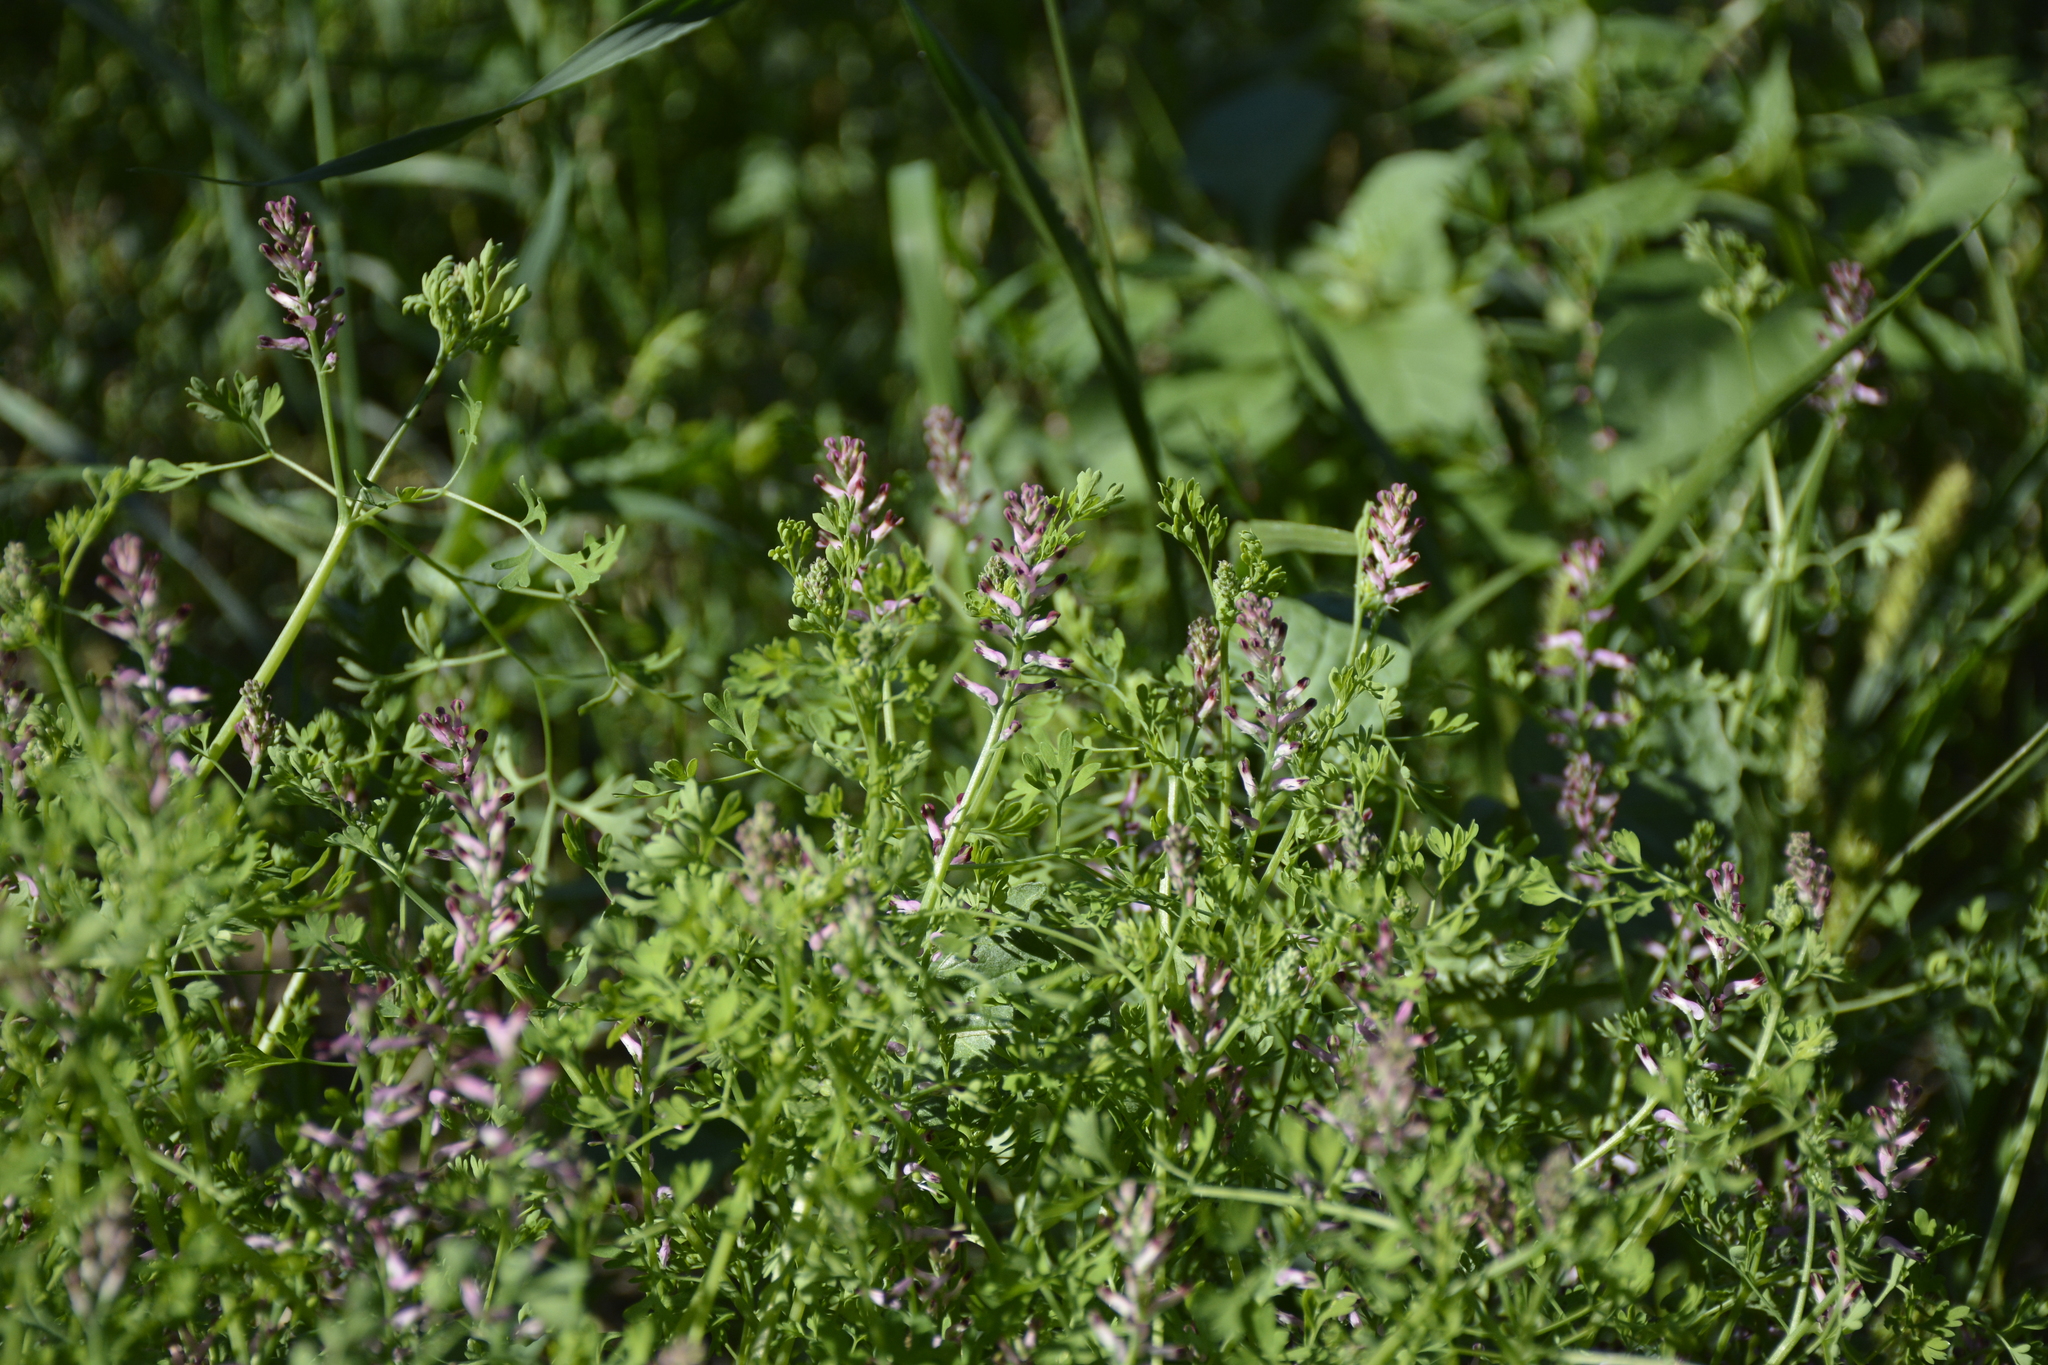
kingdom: Plantae
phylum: Tracheophyta
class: Magnoliopsida
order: Ranunculales
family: Papaveraceae
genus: Fumaria
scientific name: Fumaria officinalis
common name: Common fumitory
